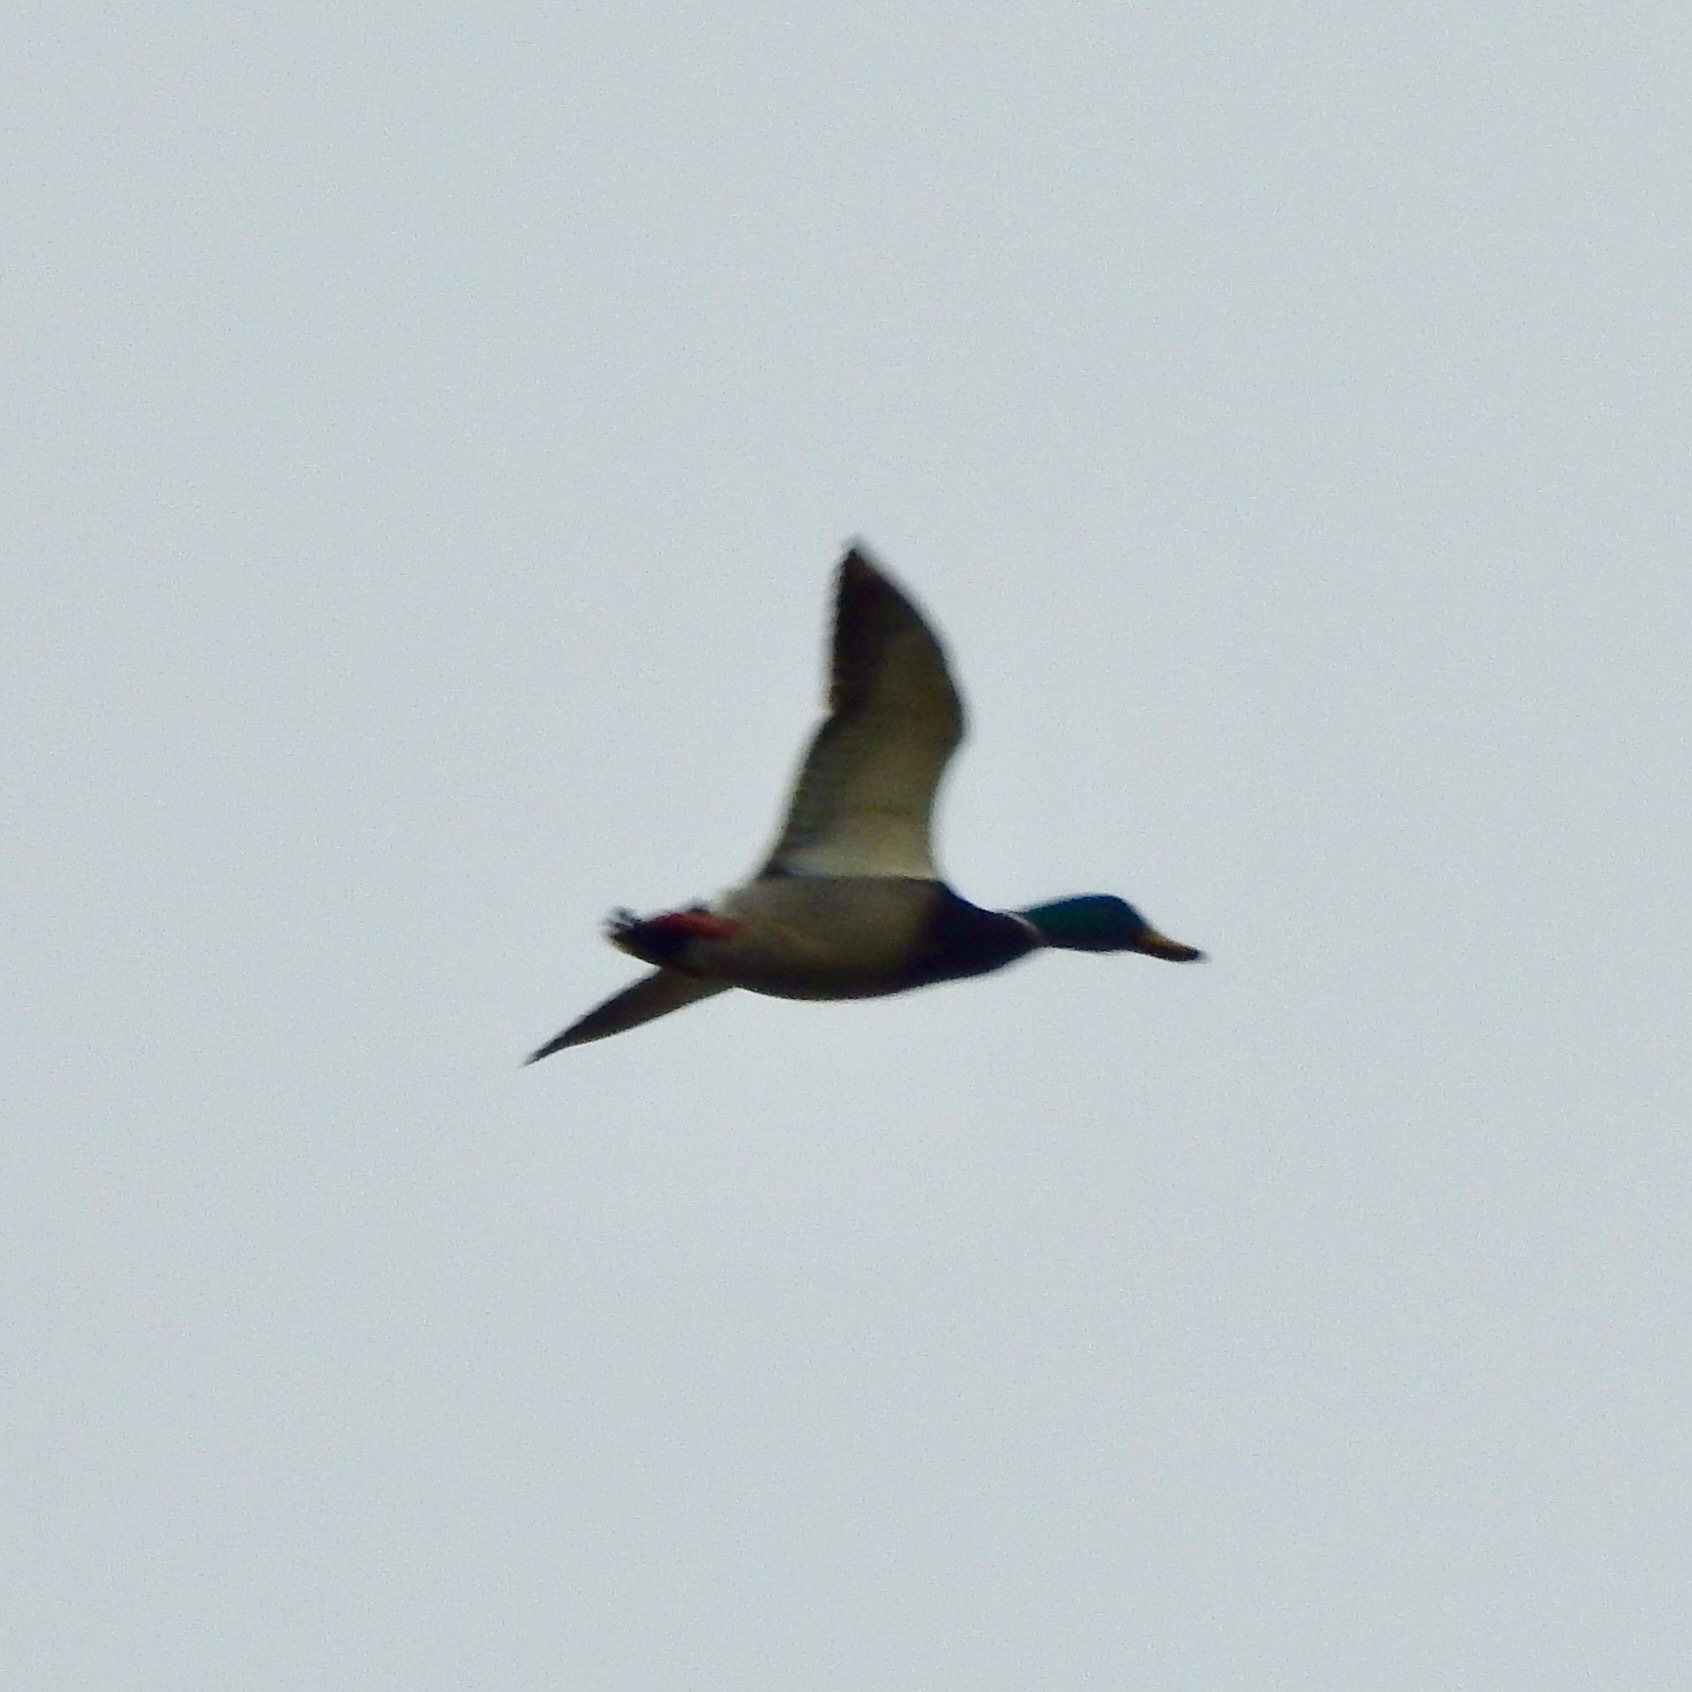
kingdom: Animalia
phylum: Chordata
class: Aves
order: Anseriformes
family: Anatidae
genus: Anas
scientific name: Anas platyrhynchos
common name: Mallard
